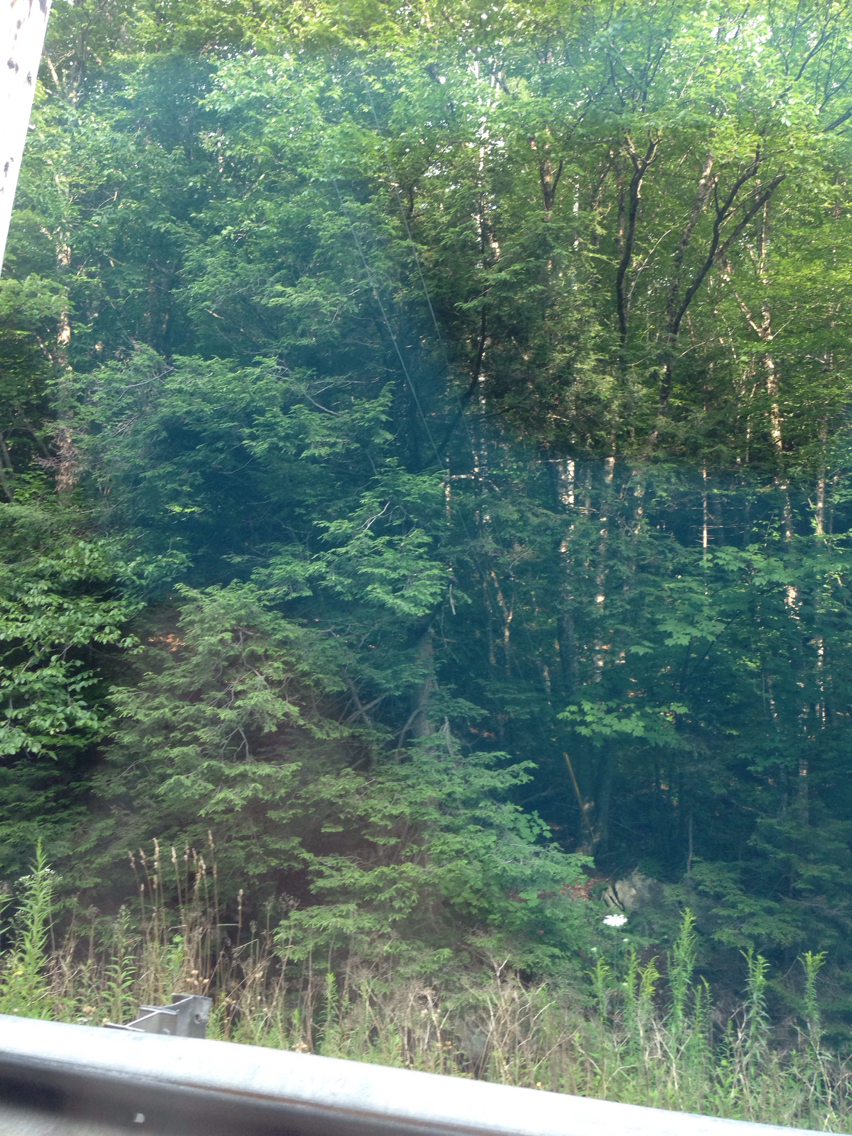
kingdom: Plantae
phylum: Tracheophyta
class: Pinopsida
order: Pinales
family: Pinaceae
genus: Tsuga
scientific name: Tsuga canadensis
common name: Eastern hemlock
